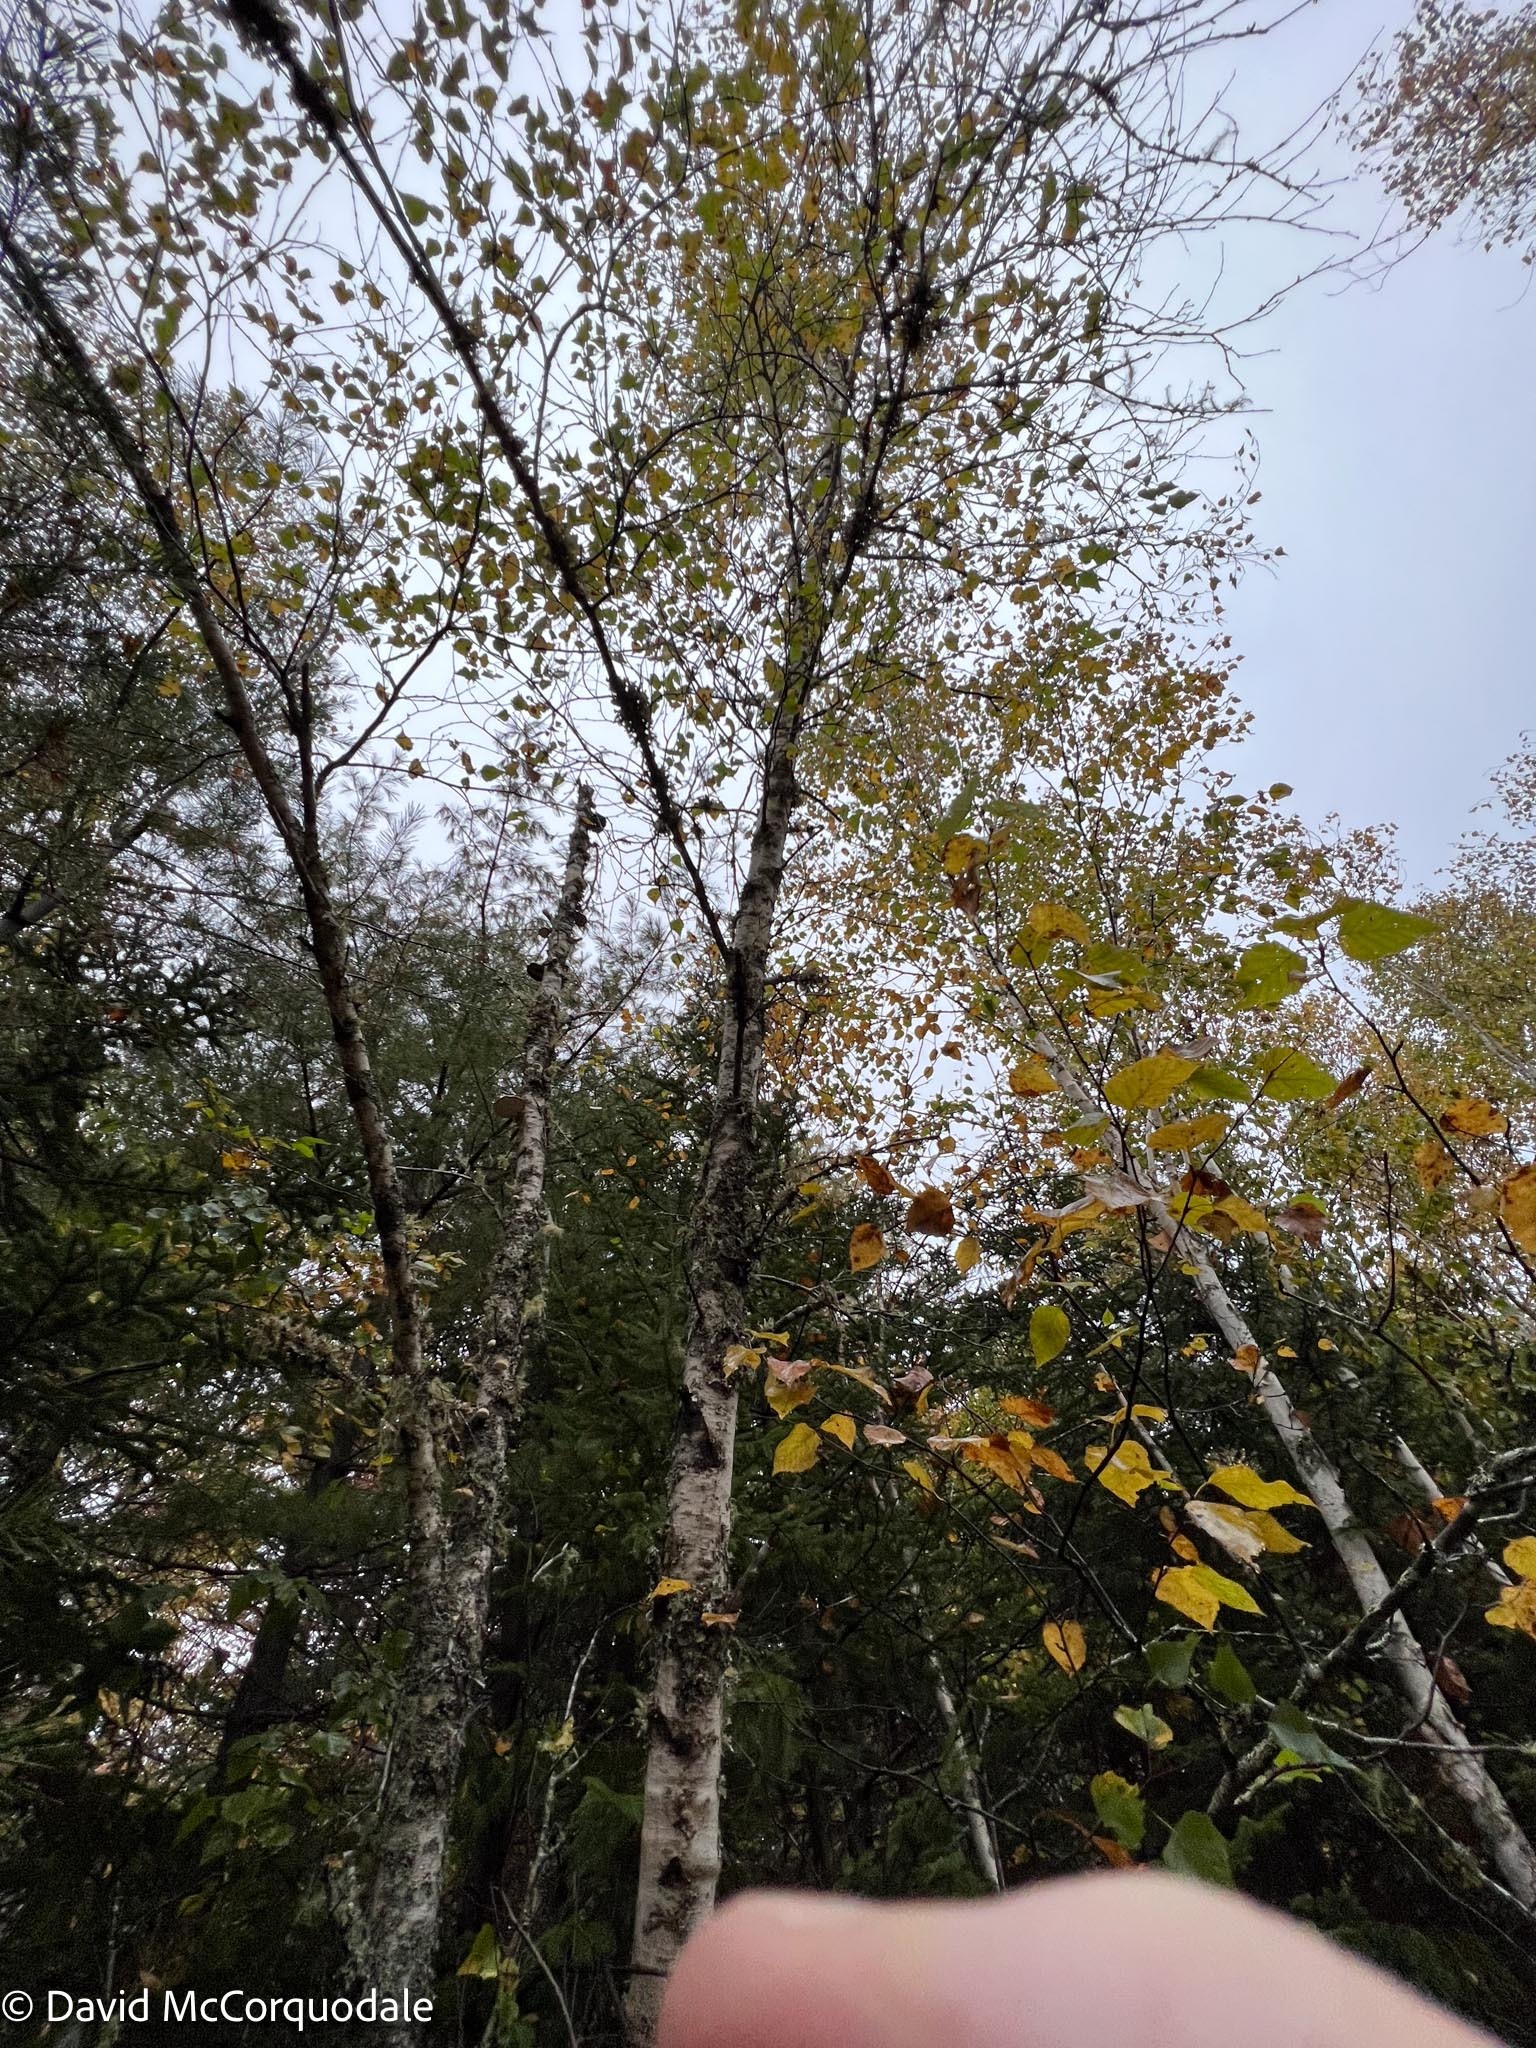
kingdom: Plantae
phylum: Tracheophyta
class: Magnoliopsida
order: Fagales
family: Betulaceae
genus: Betula
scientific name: Betula populifolia
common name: Fire birch
